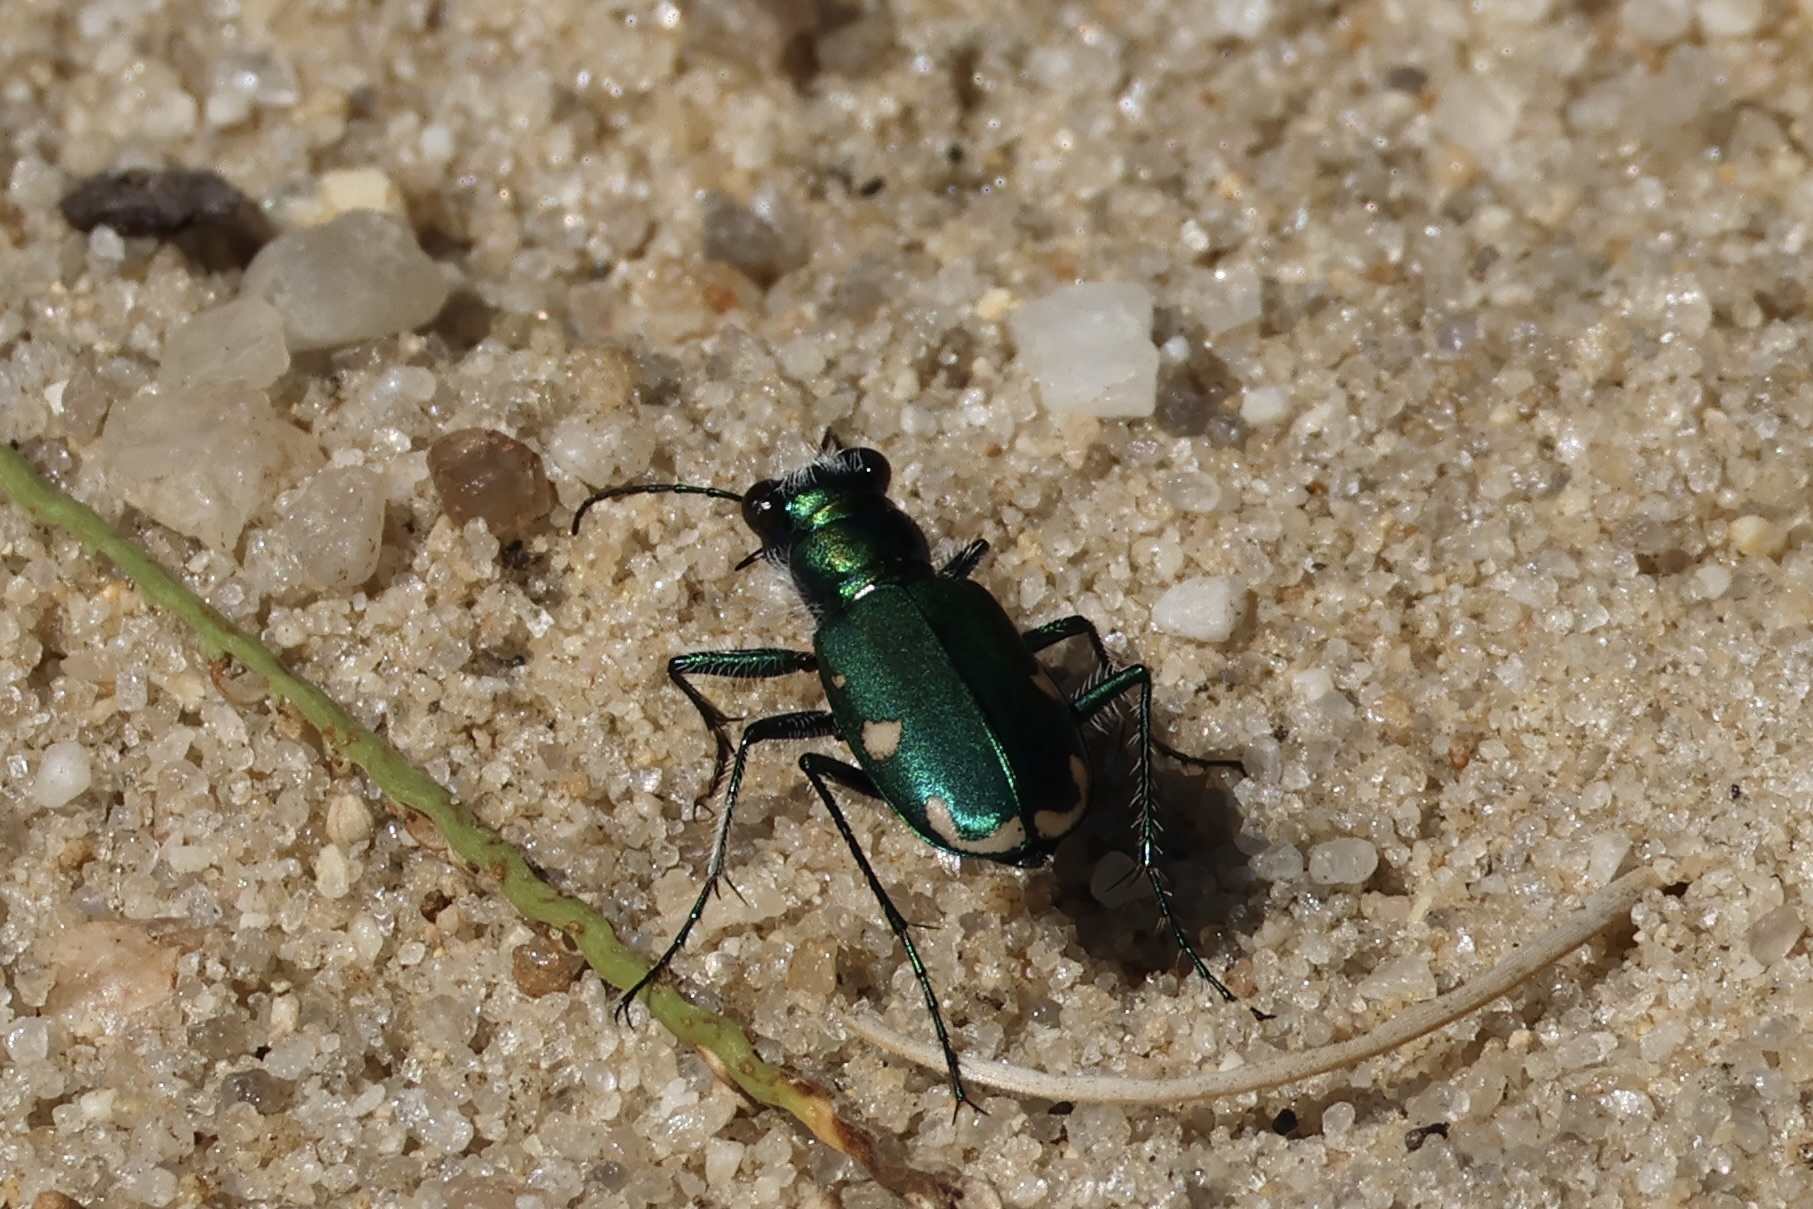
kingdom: Animalia
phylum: Arthropoda
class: Insecta
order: Coleoptera
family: Carabidae
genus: Cicindela
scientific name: Cicindela scutellaris
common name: Festive tiger beetle
